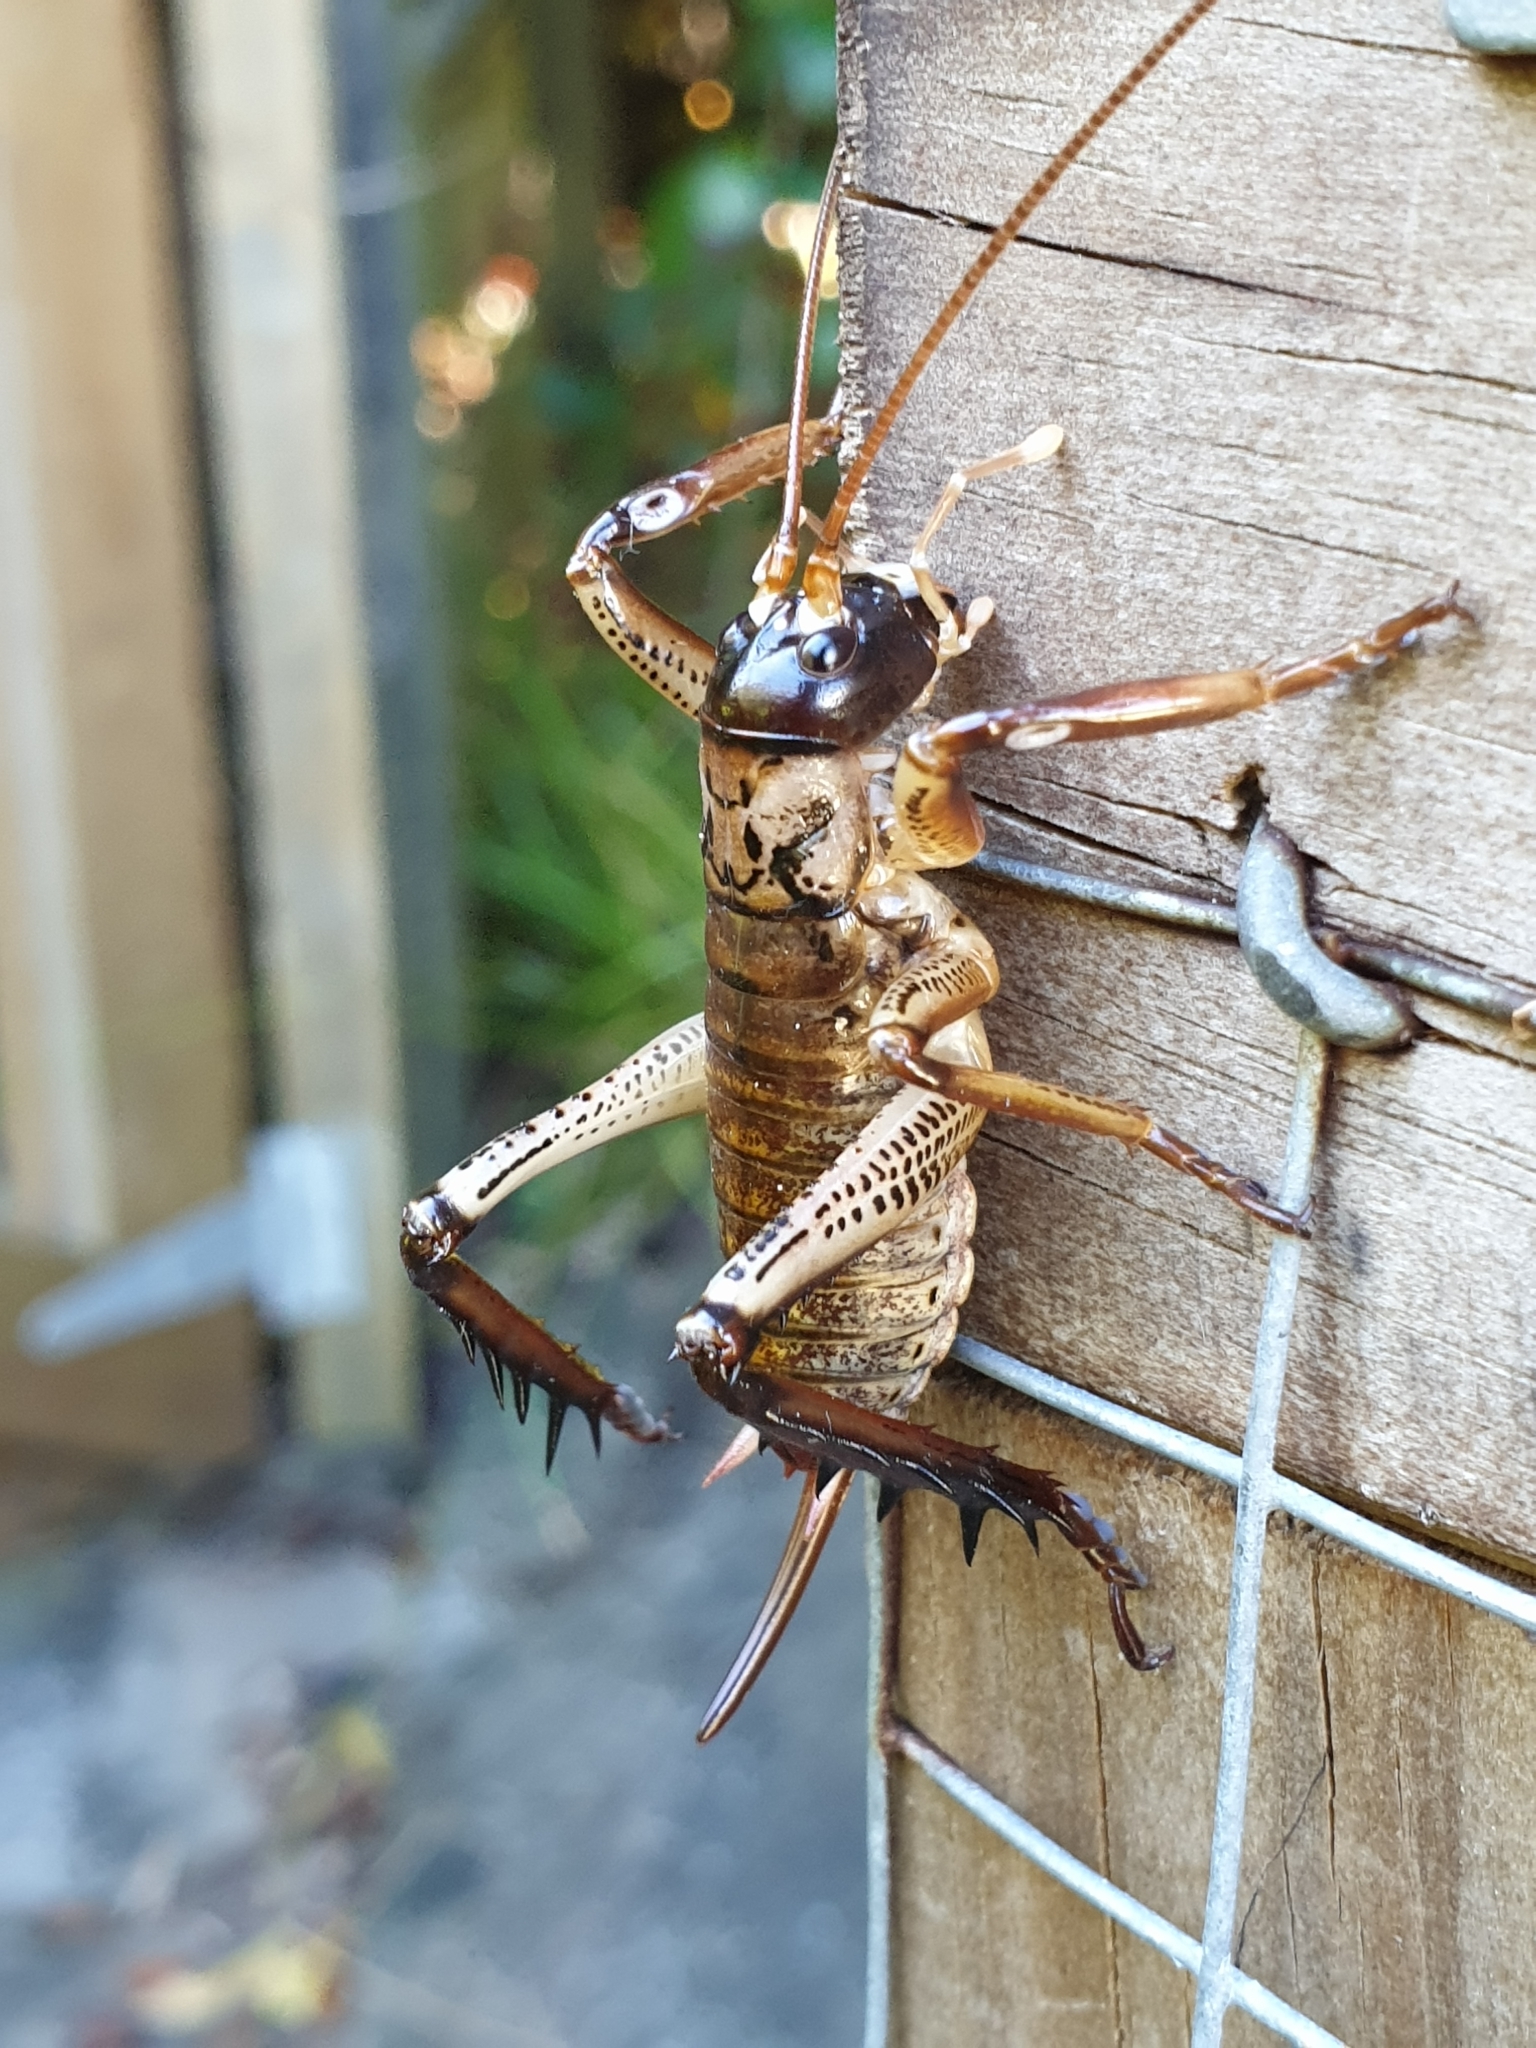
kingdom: Animalia
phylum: Arthropoda
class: Insecta
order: Orthoptera
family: Anostostomatidae
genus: Hemideina
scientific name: Hemideina thoracica
